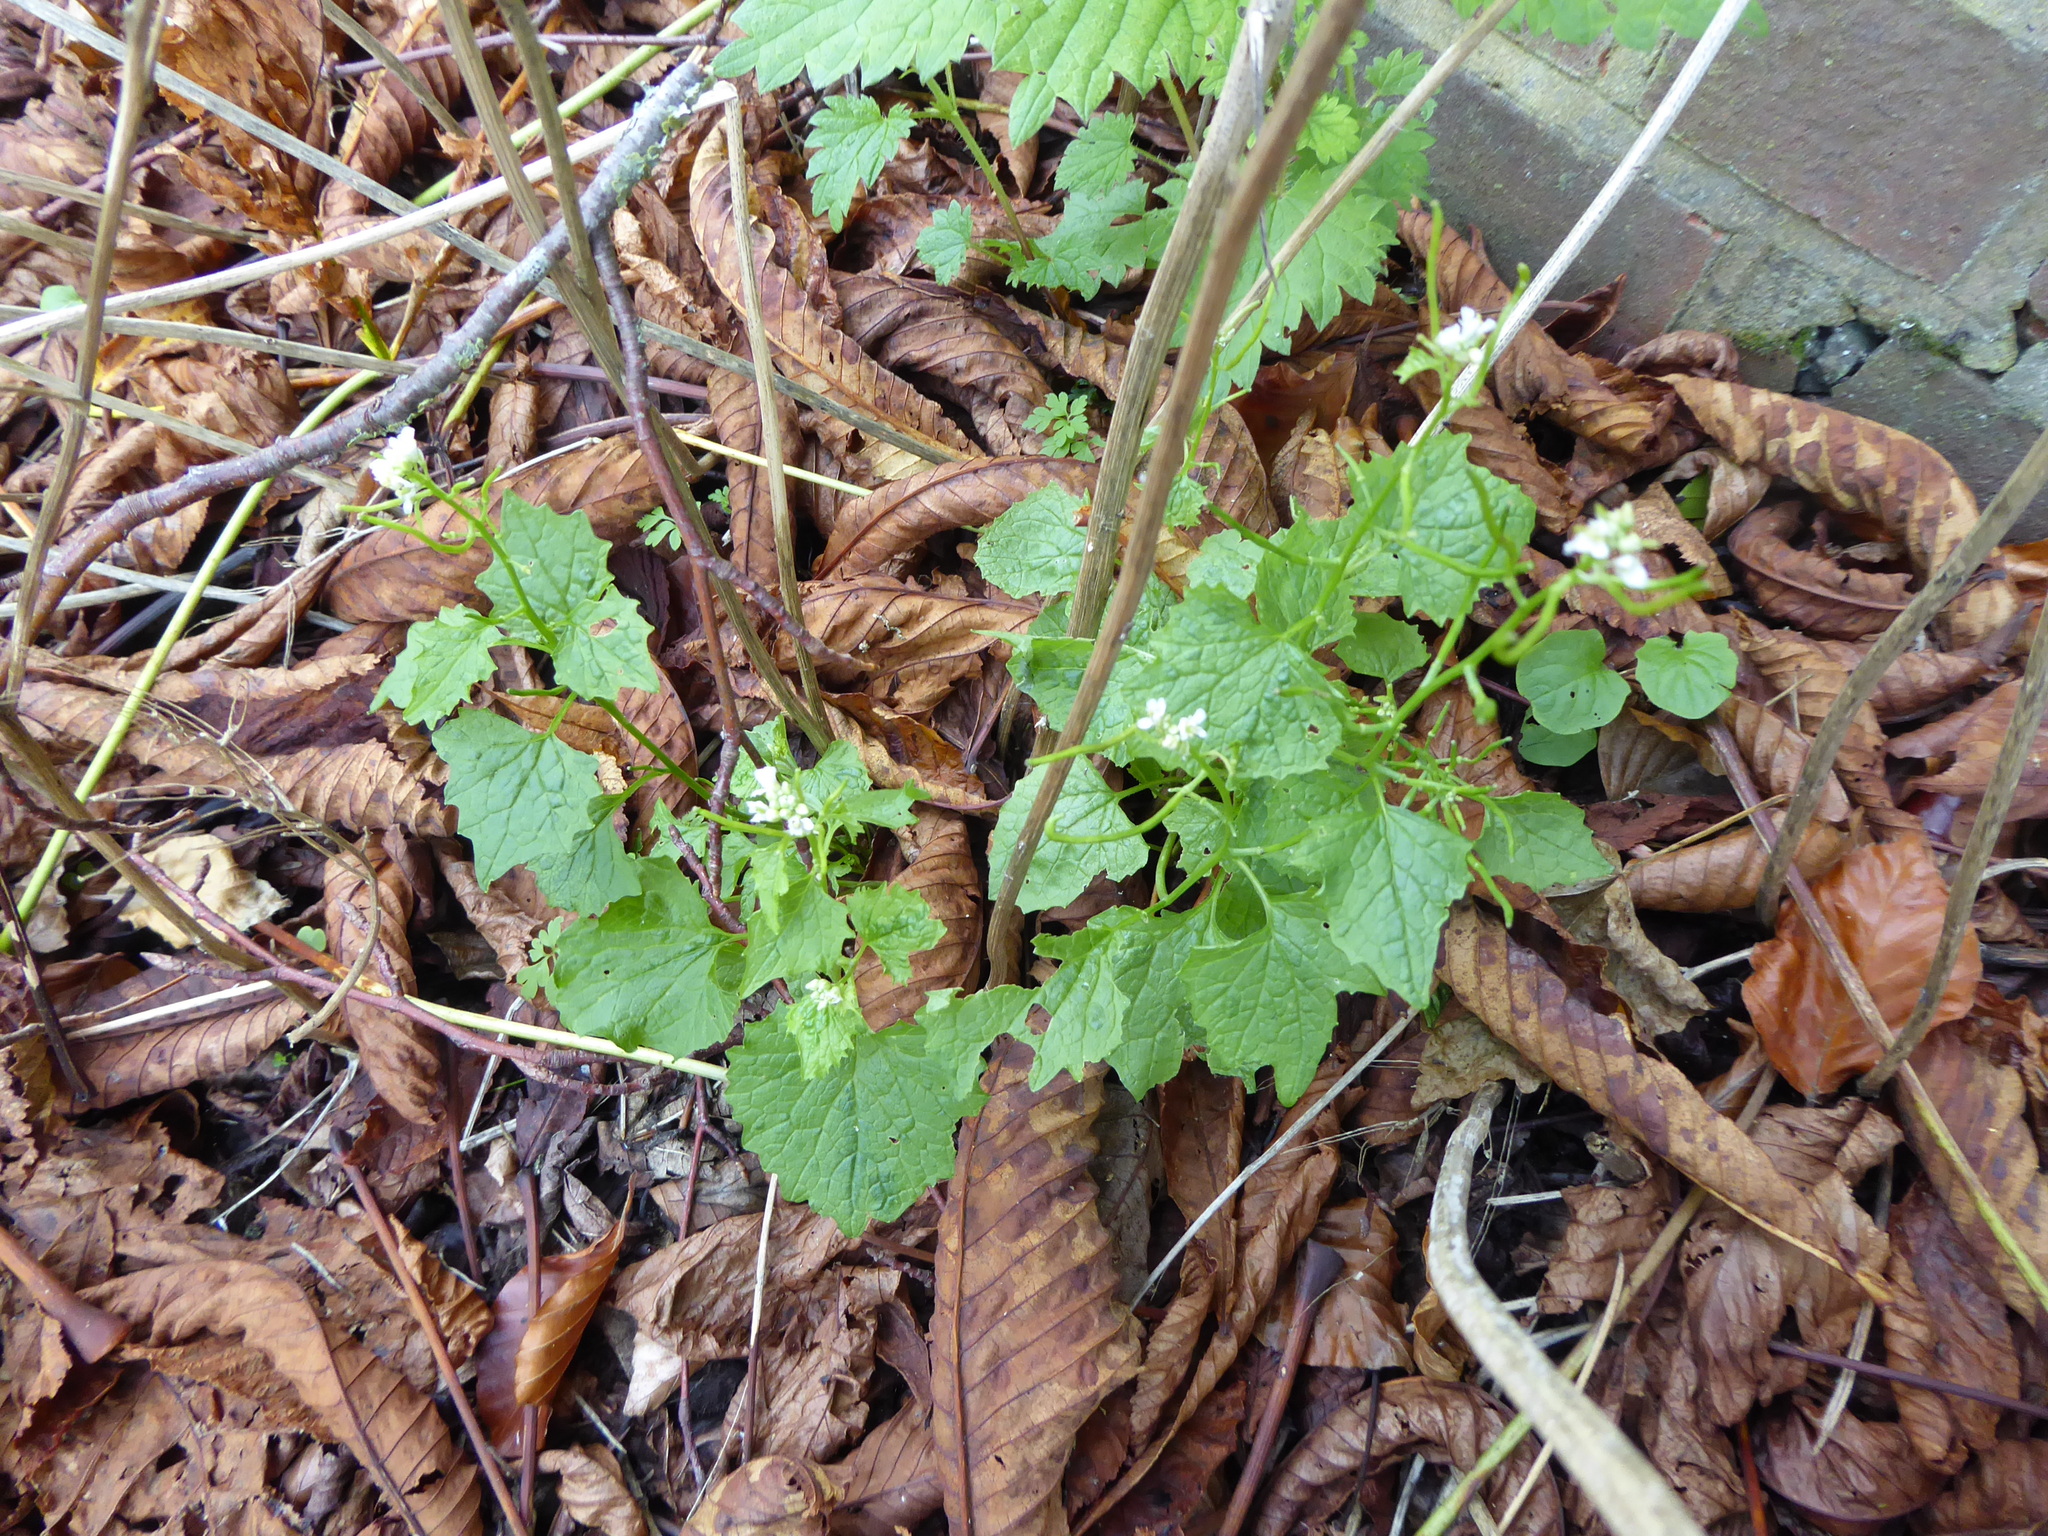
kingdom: Plantae
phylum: Tracheophyta
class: Magnoliopsida
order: Brassicales
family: Brassicaceae
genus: Alliaria
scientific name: Alliaria petiolata
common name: Garlic mustard
